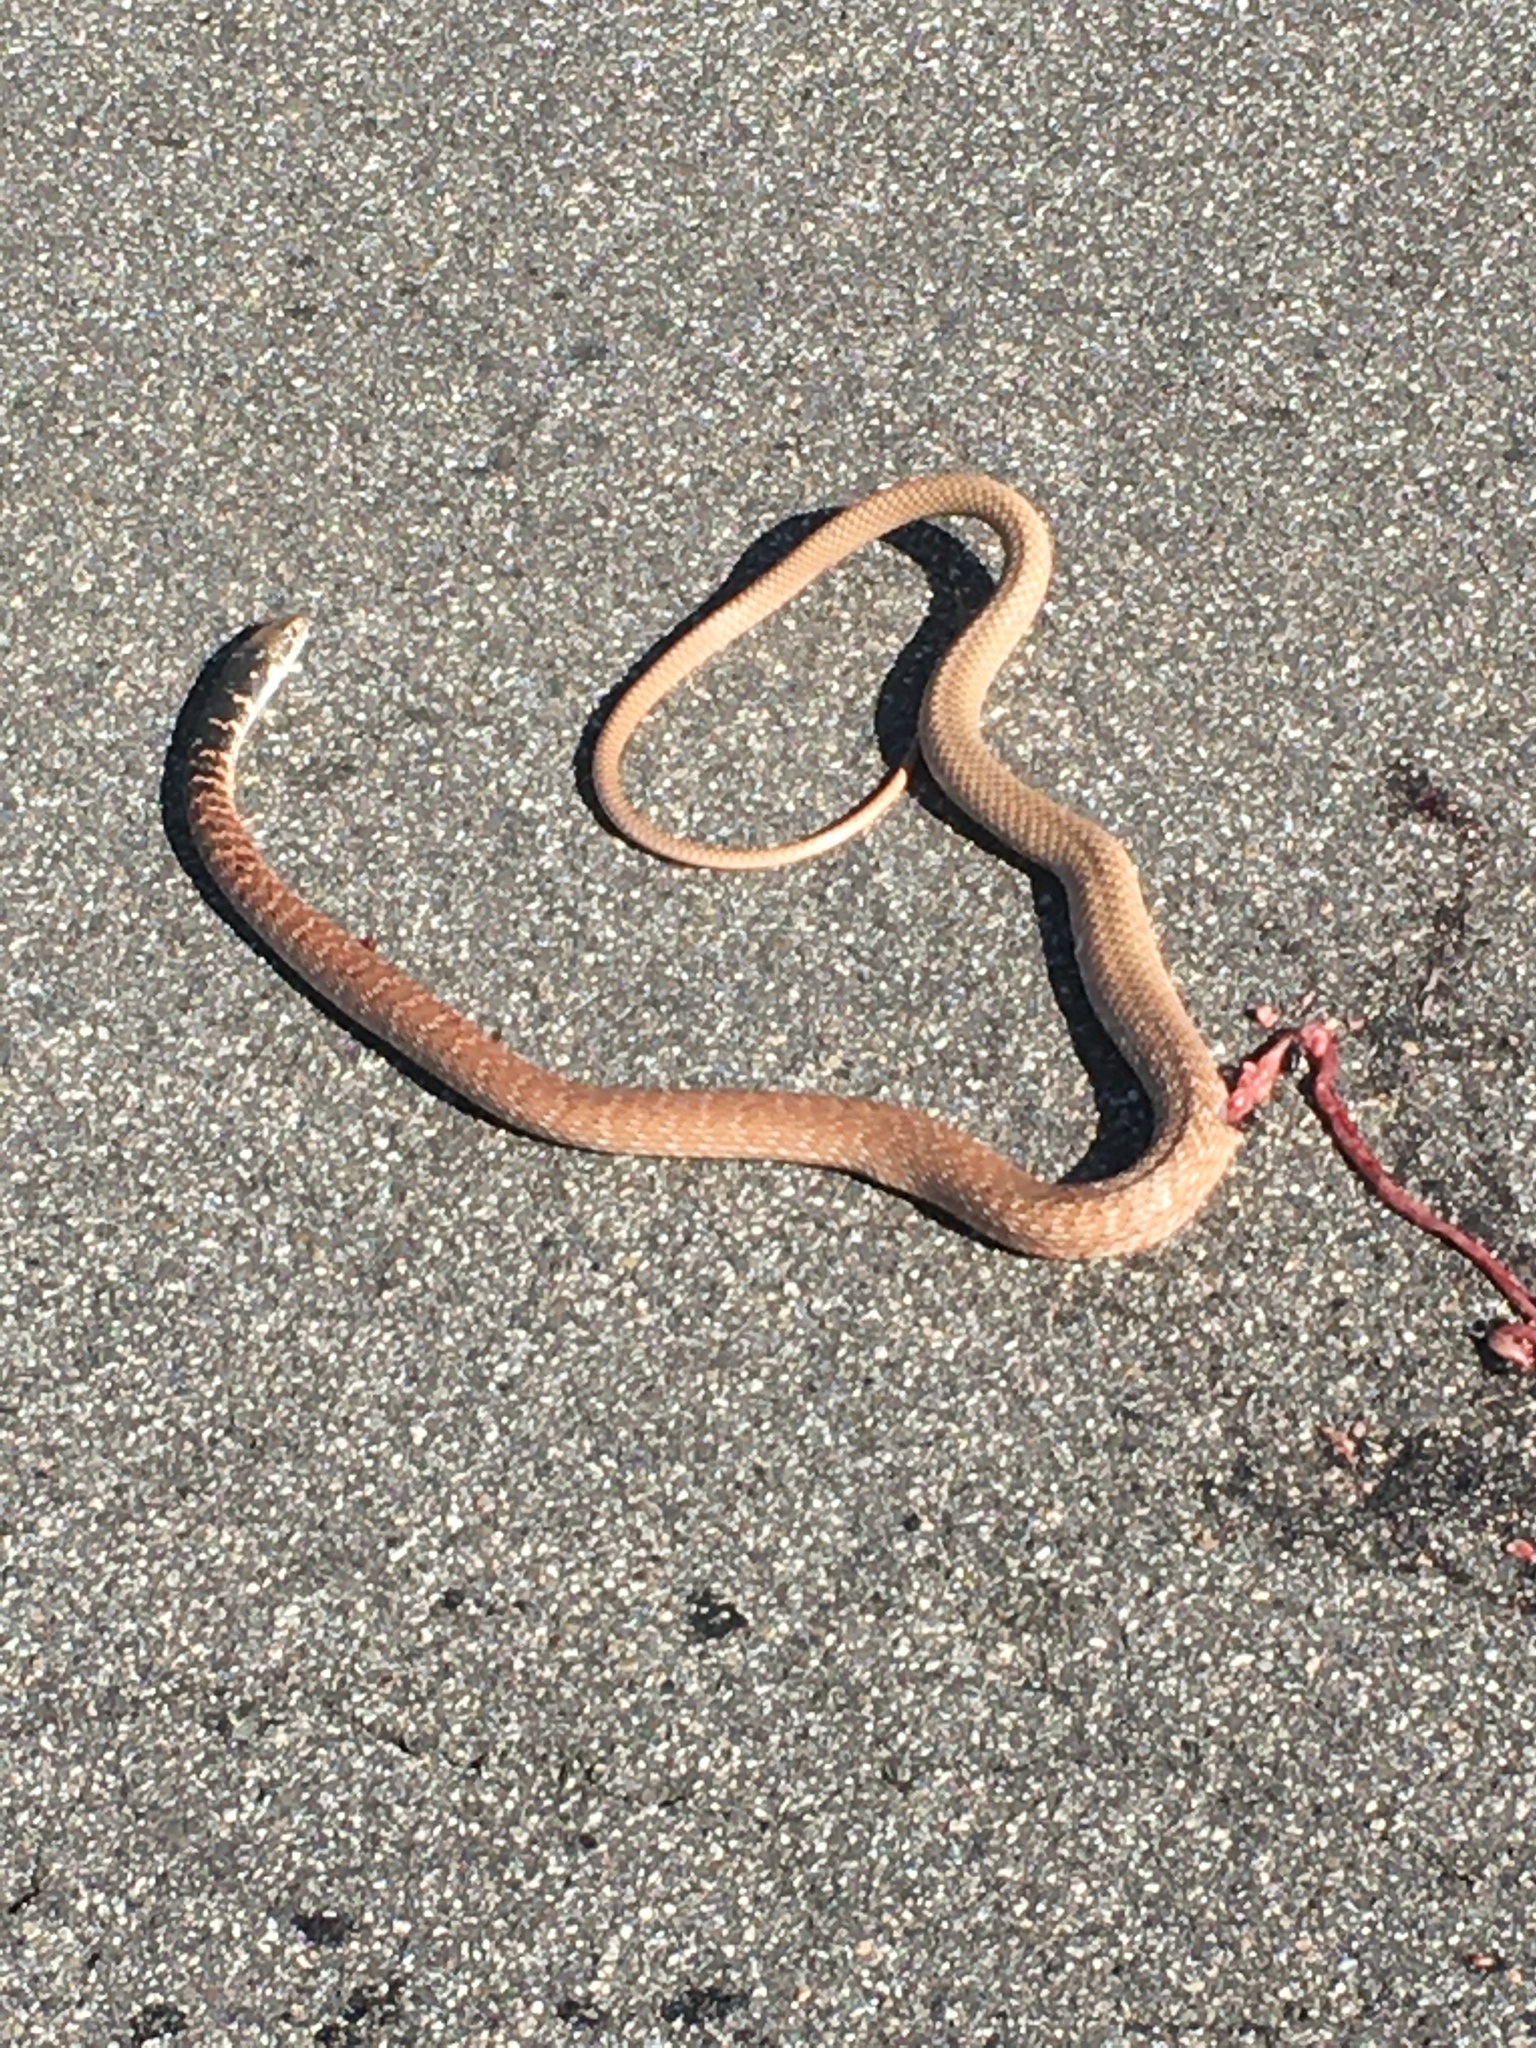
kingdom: Animalia
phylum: Chordata
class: Squamata
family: Colubridae
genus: Masticophis
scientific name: Masticophis flagellum
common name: Coachwhip
